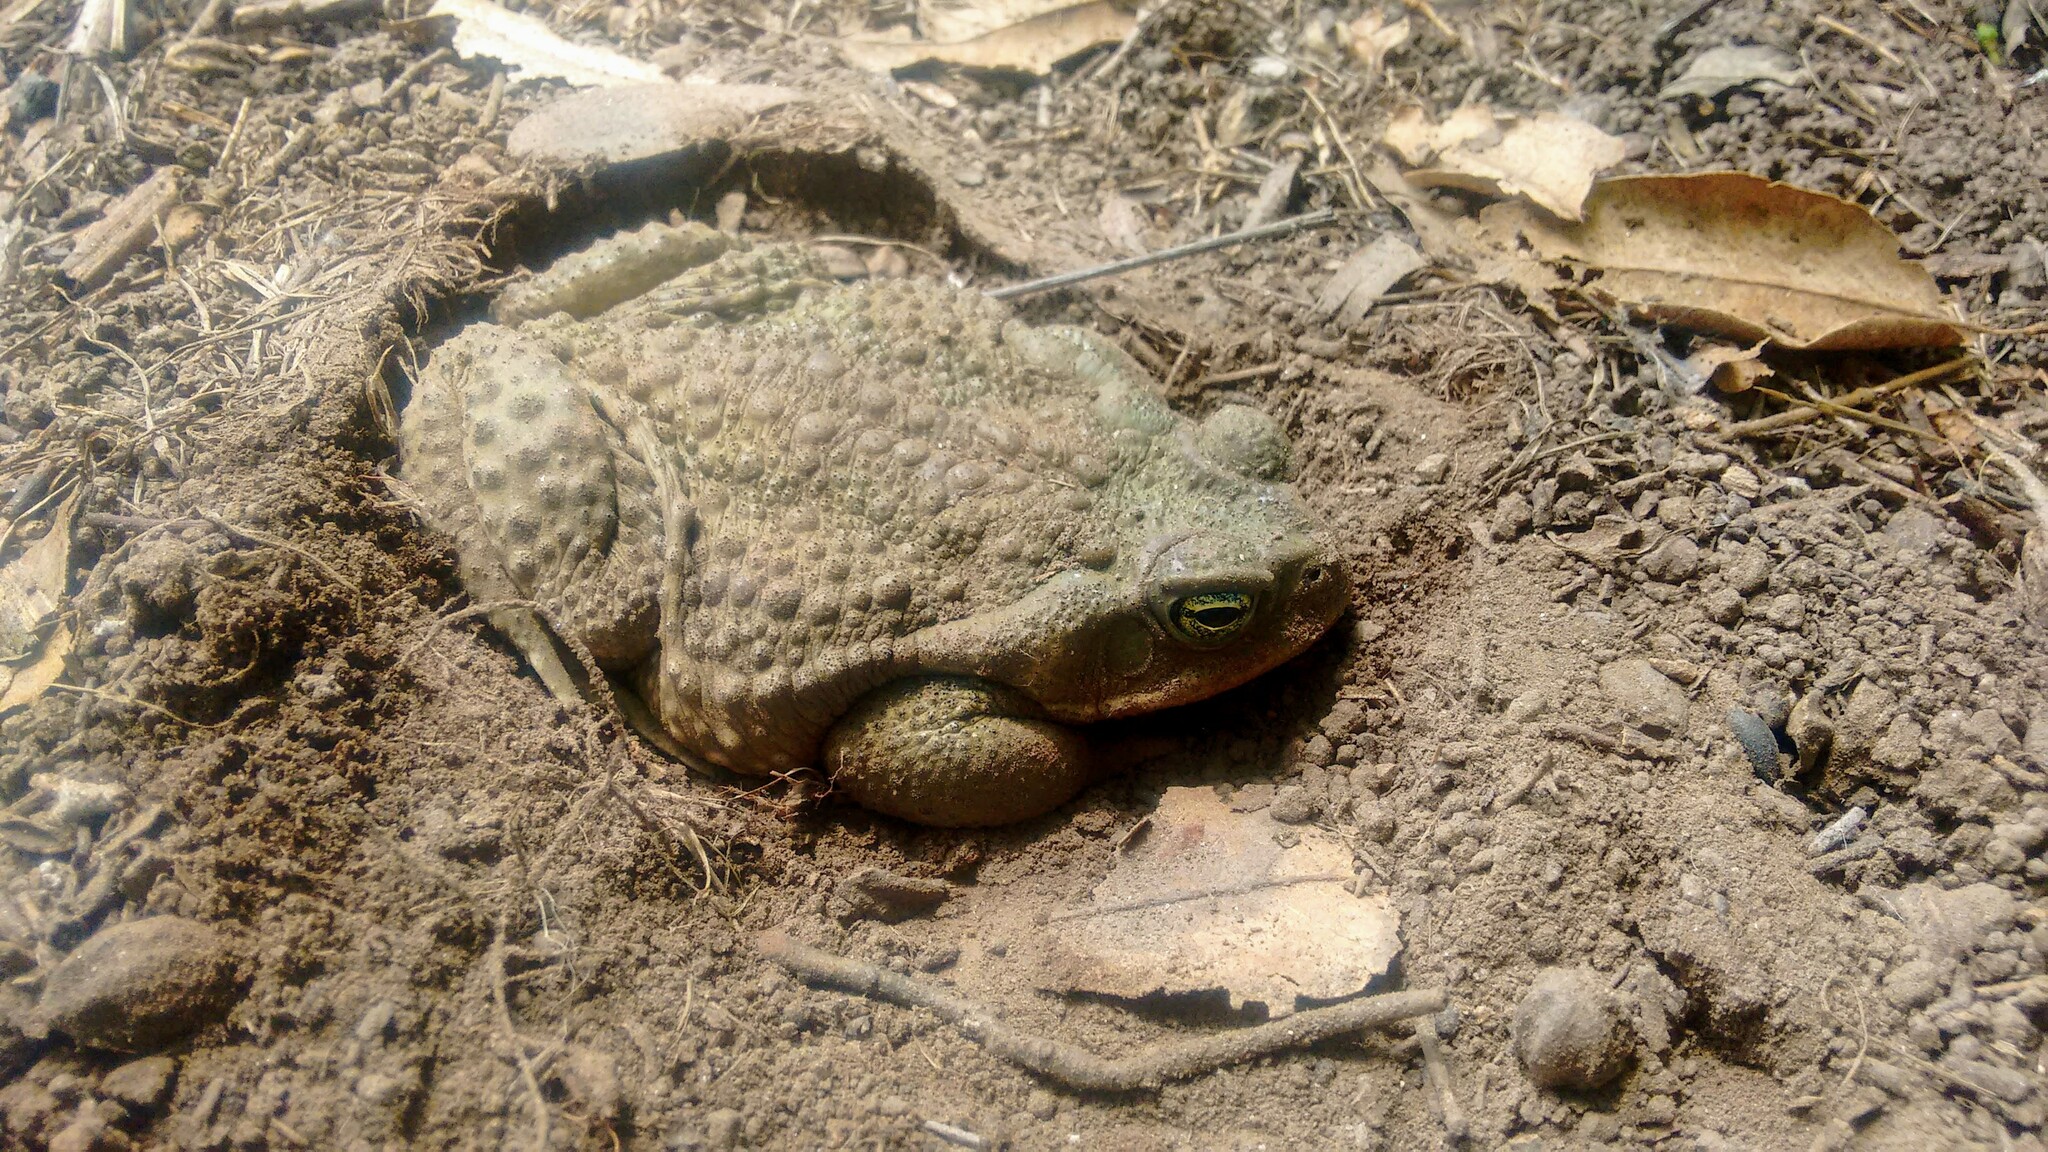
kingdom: Animalia
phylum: Chordata
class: Amphibia
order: Anura
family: Bufonidae
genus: Rhinella
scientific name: Rhinella arenarum
